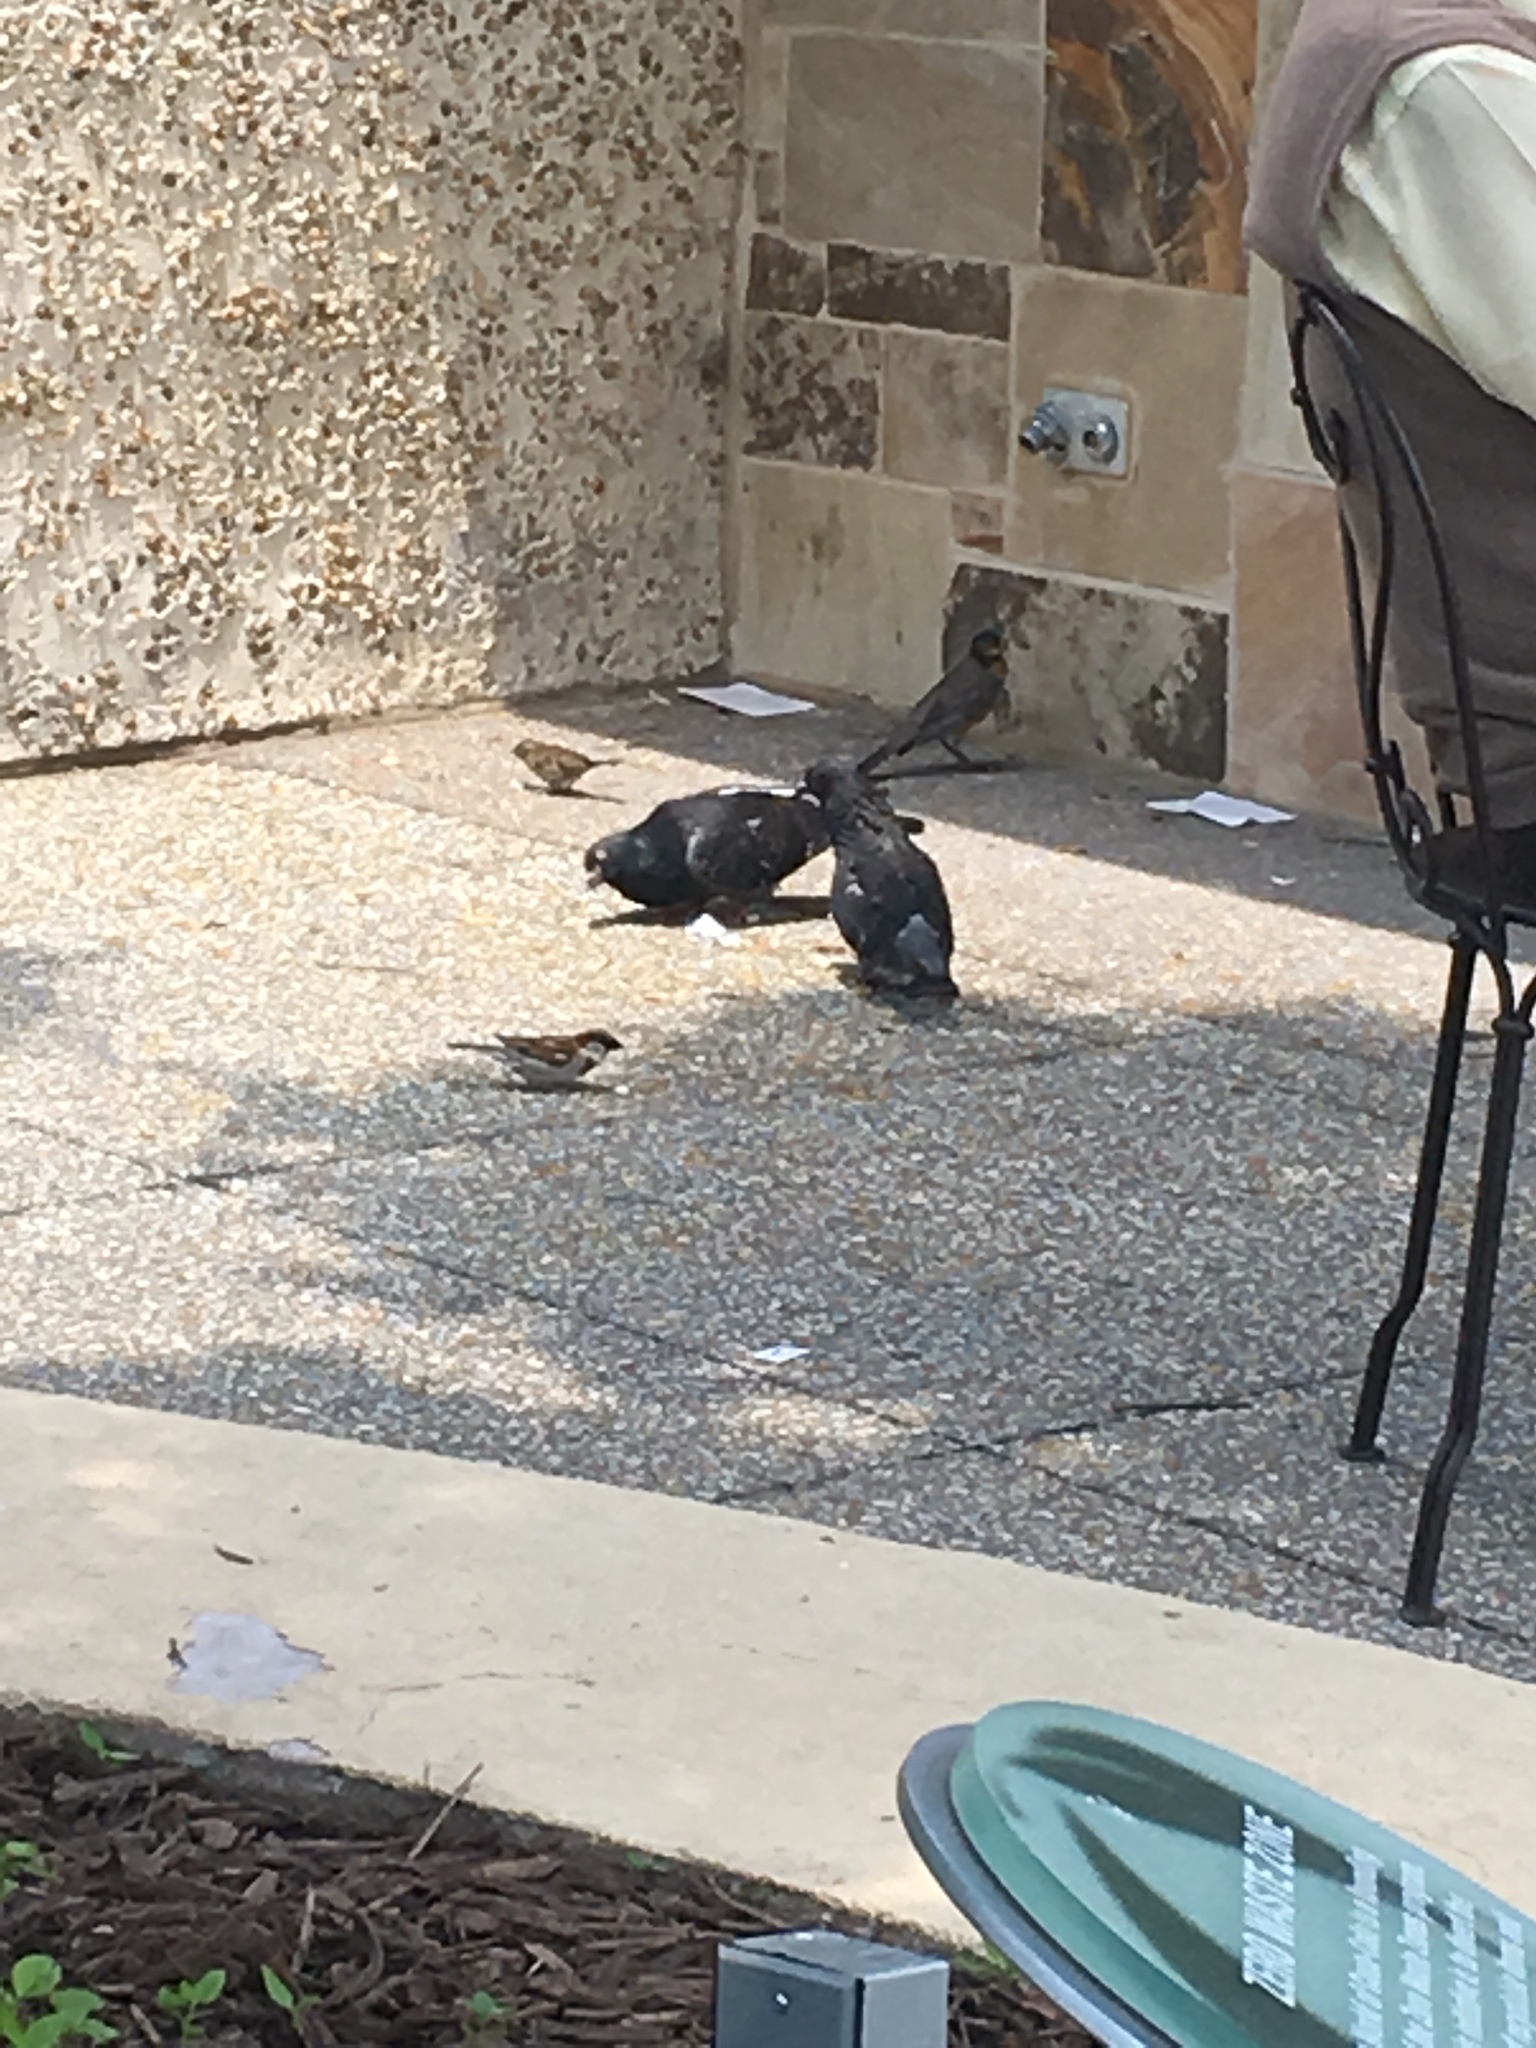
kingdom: Animalia
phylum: Chordata
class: Aves
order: Columbiformes
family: Columbidae
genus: Columba
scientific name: Columba livia
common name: Rock pigeon
